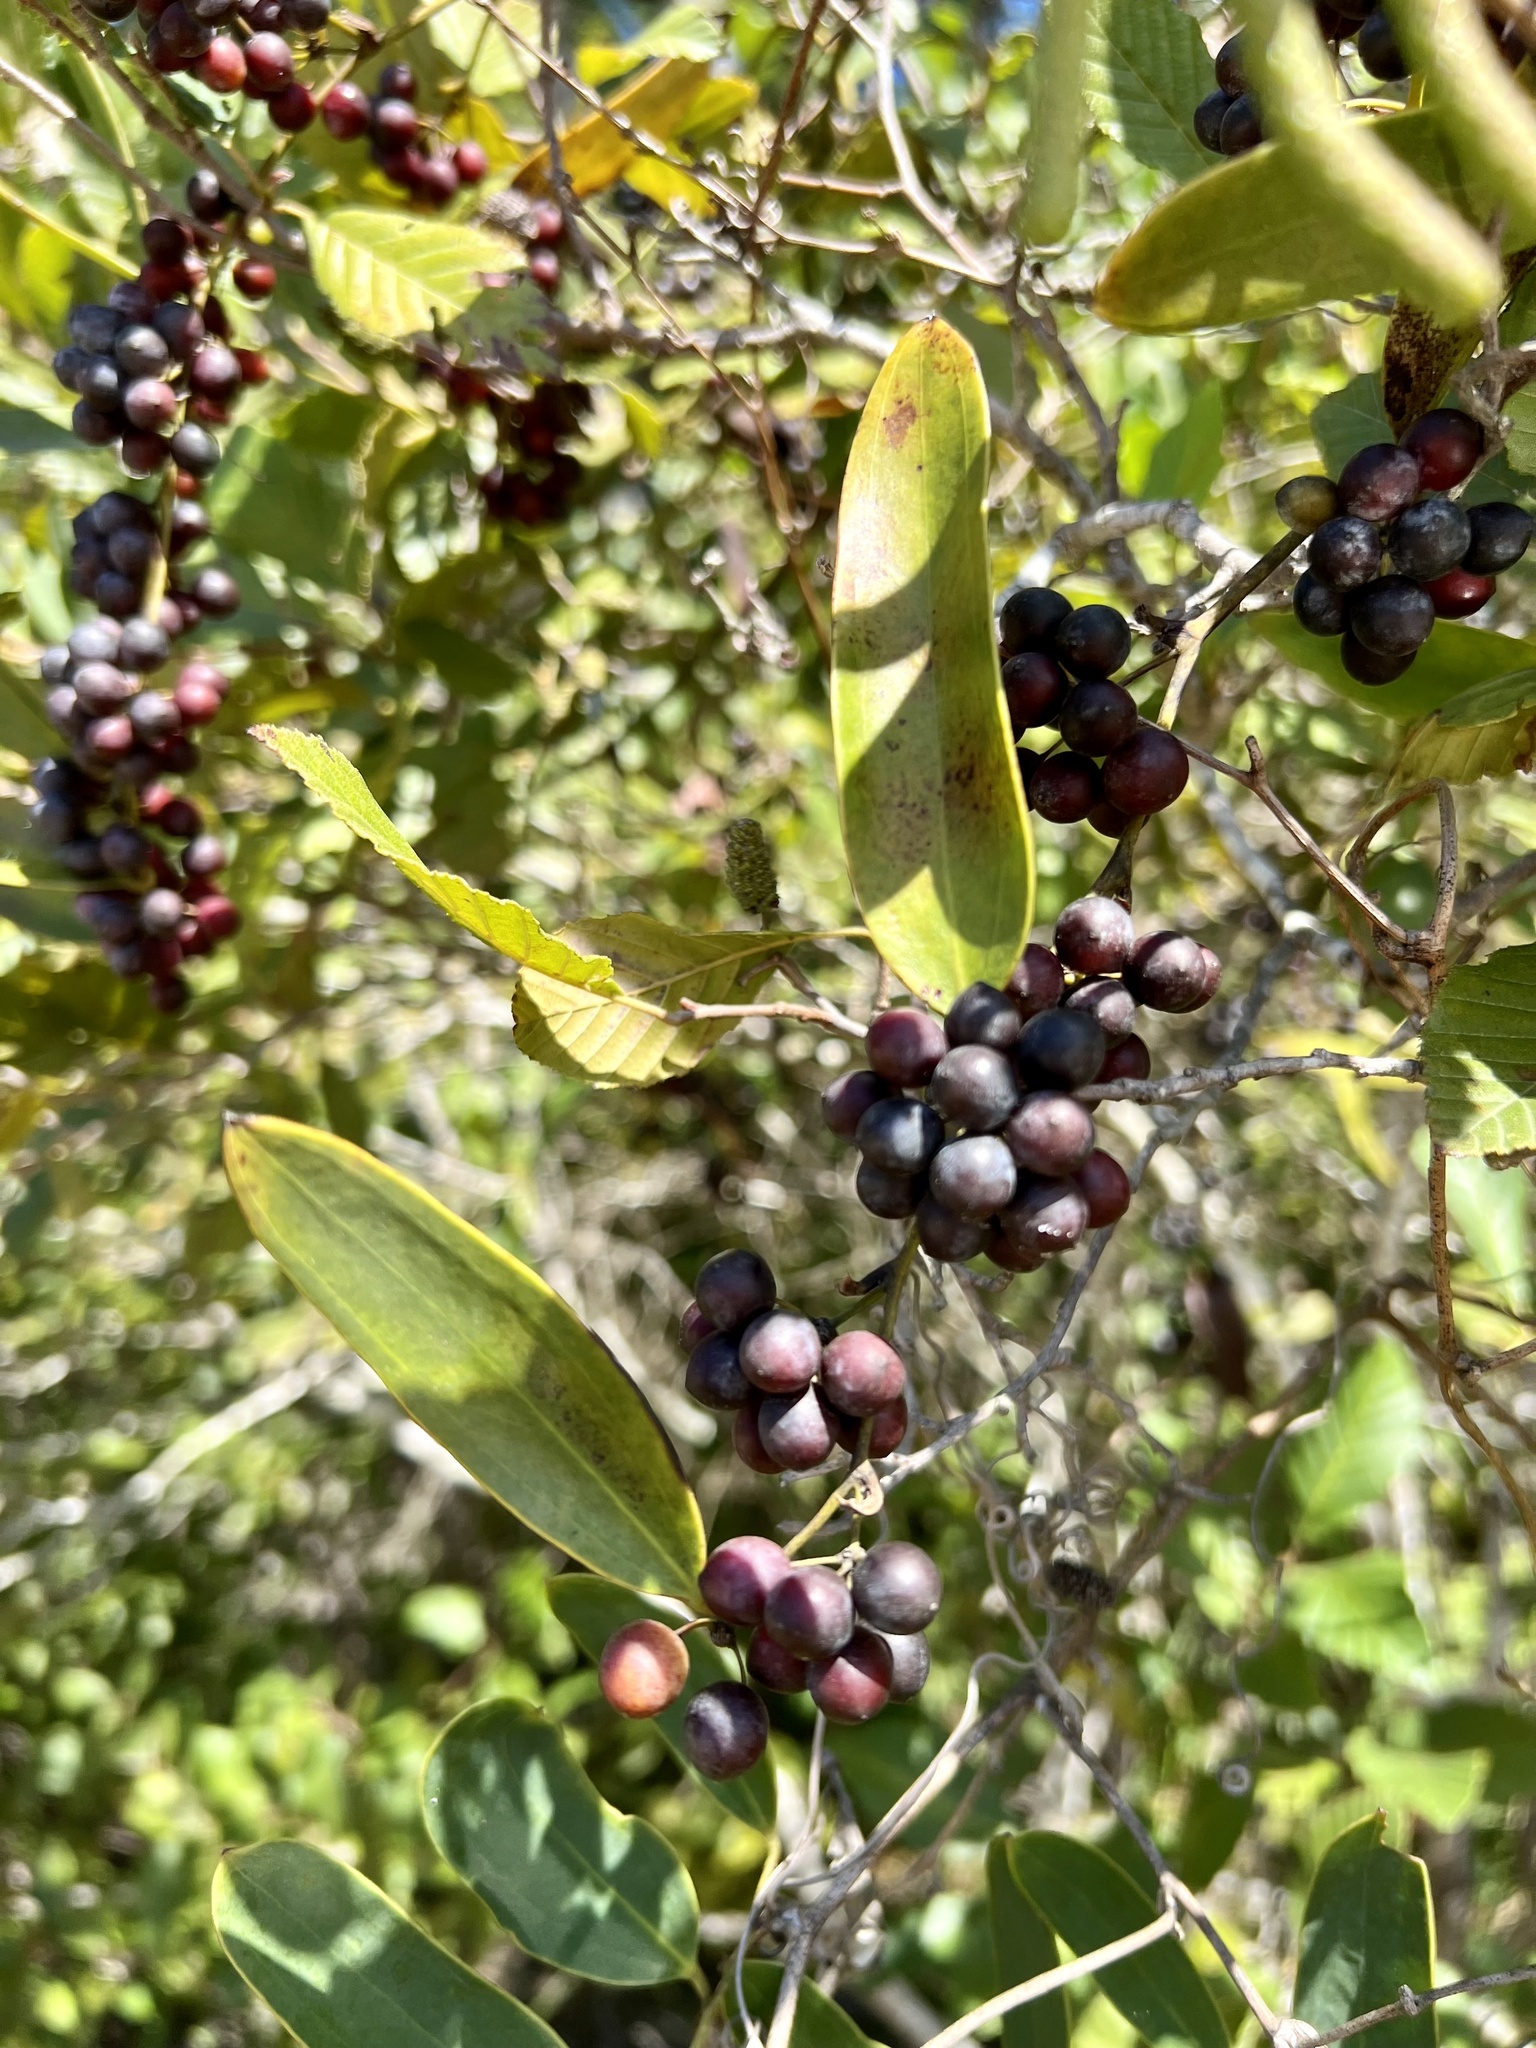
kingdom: Plantae
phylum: Tracheophyta
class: Liliopsida
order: Liliales
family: Smilacaceae
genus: Smilax
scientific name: Smilax laurifolia
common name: Bamboovine
